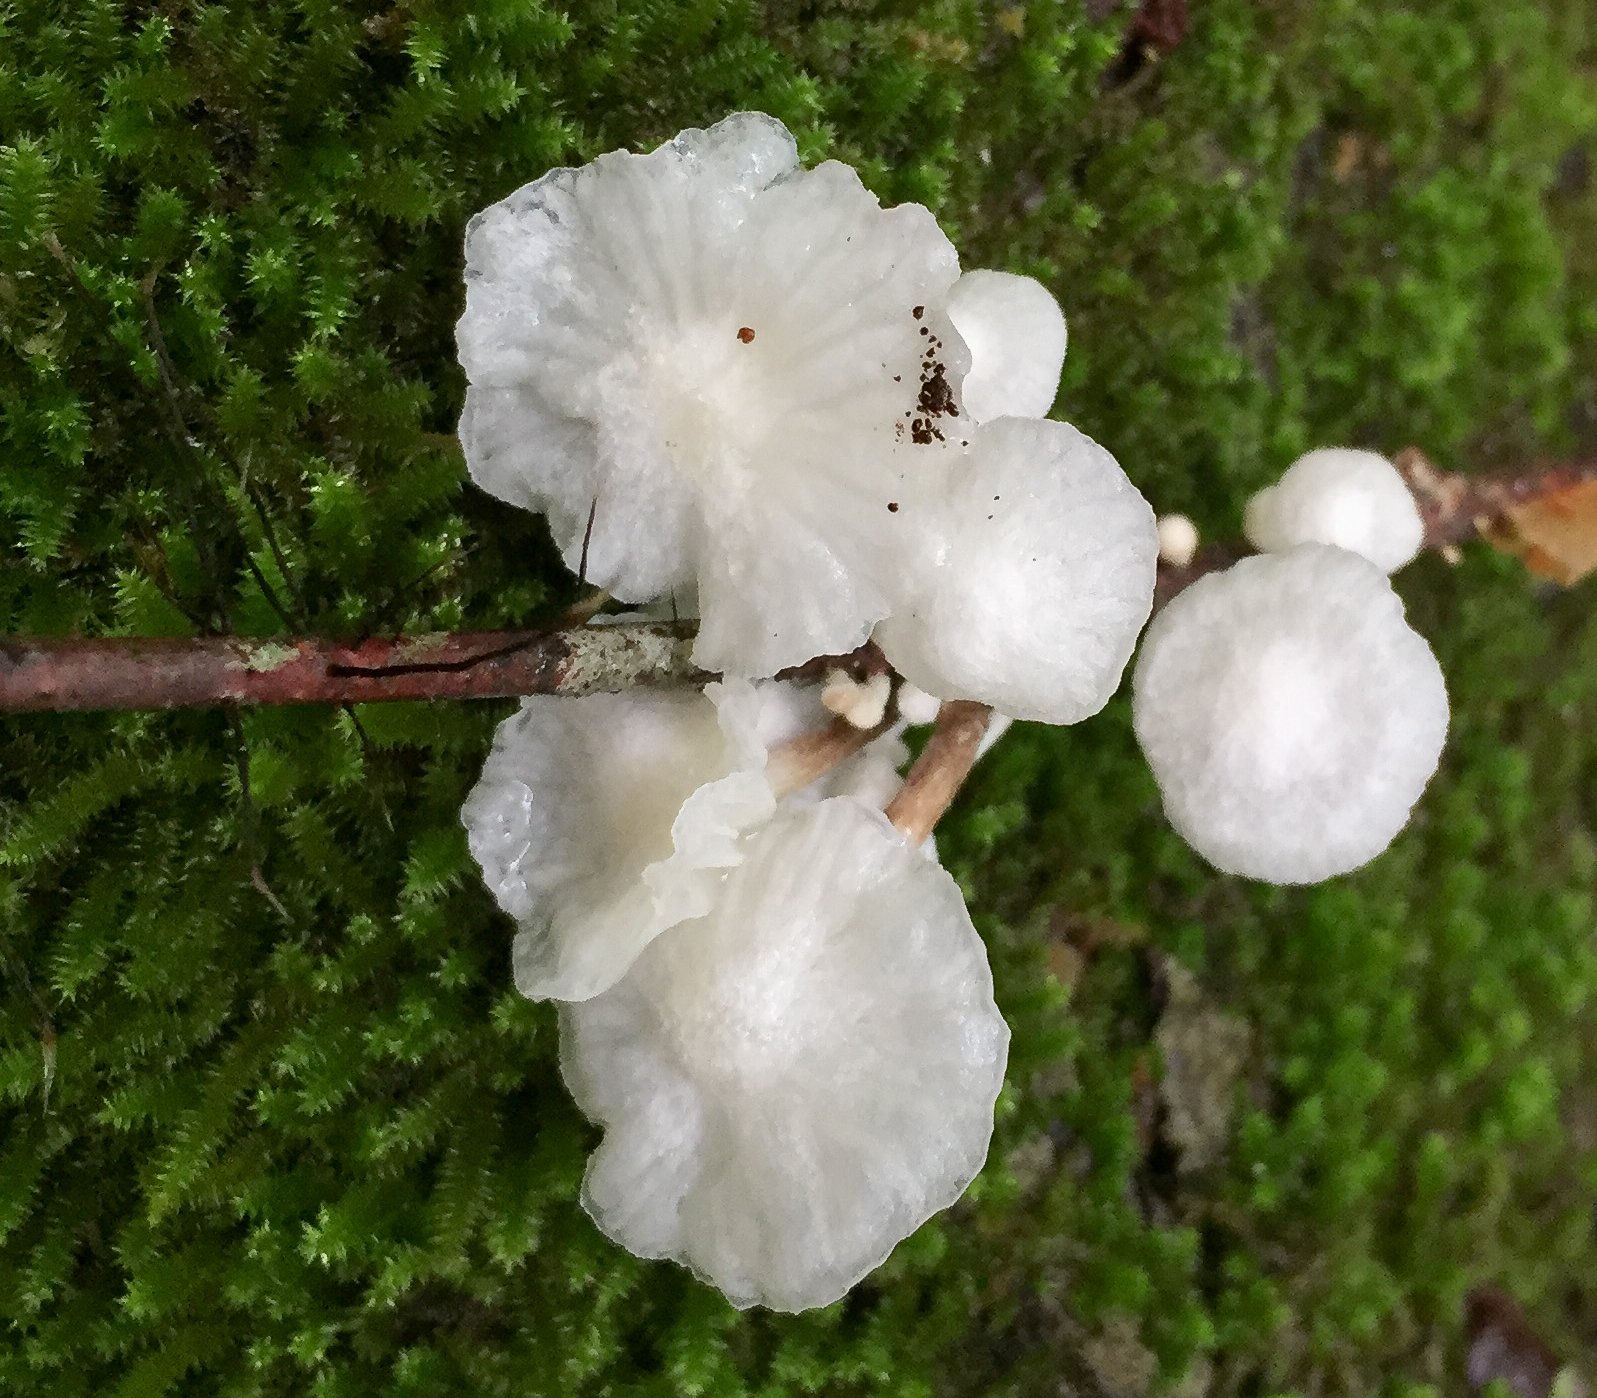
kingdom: Fungi
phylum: Basidiomycota
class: Agaricomycetes
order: Agaricales
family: Omphalotaceae
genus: Marasmiellus
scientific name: Marasmiellus candidus
